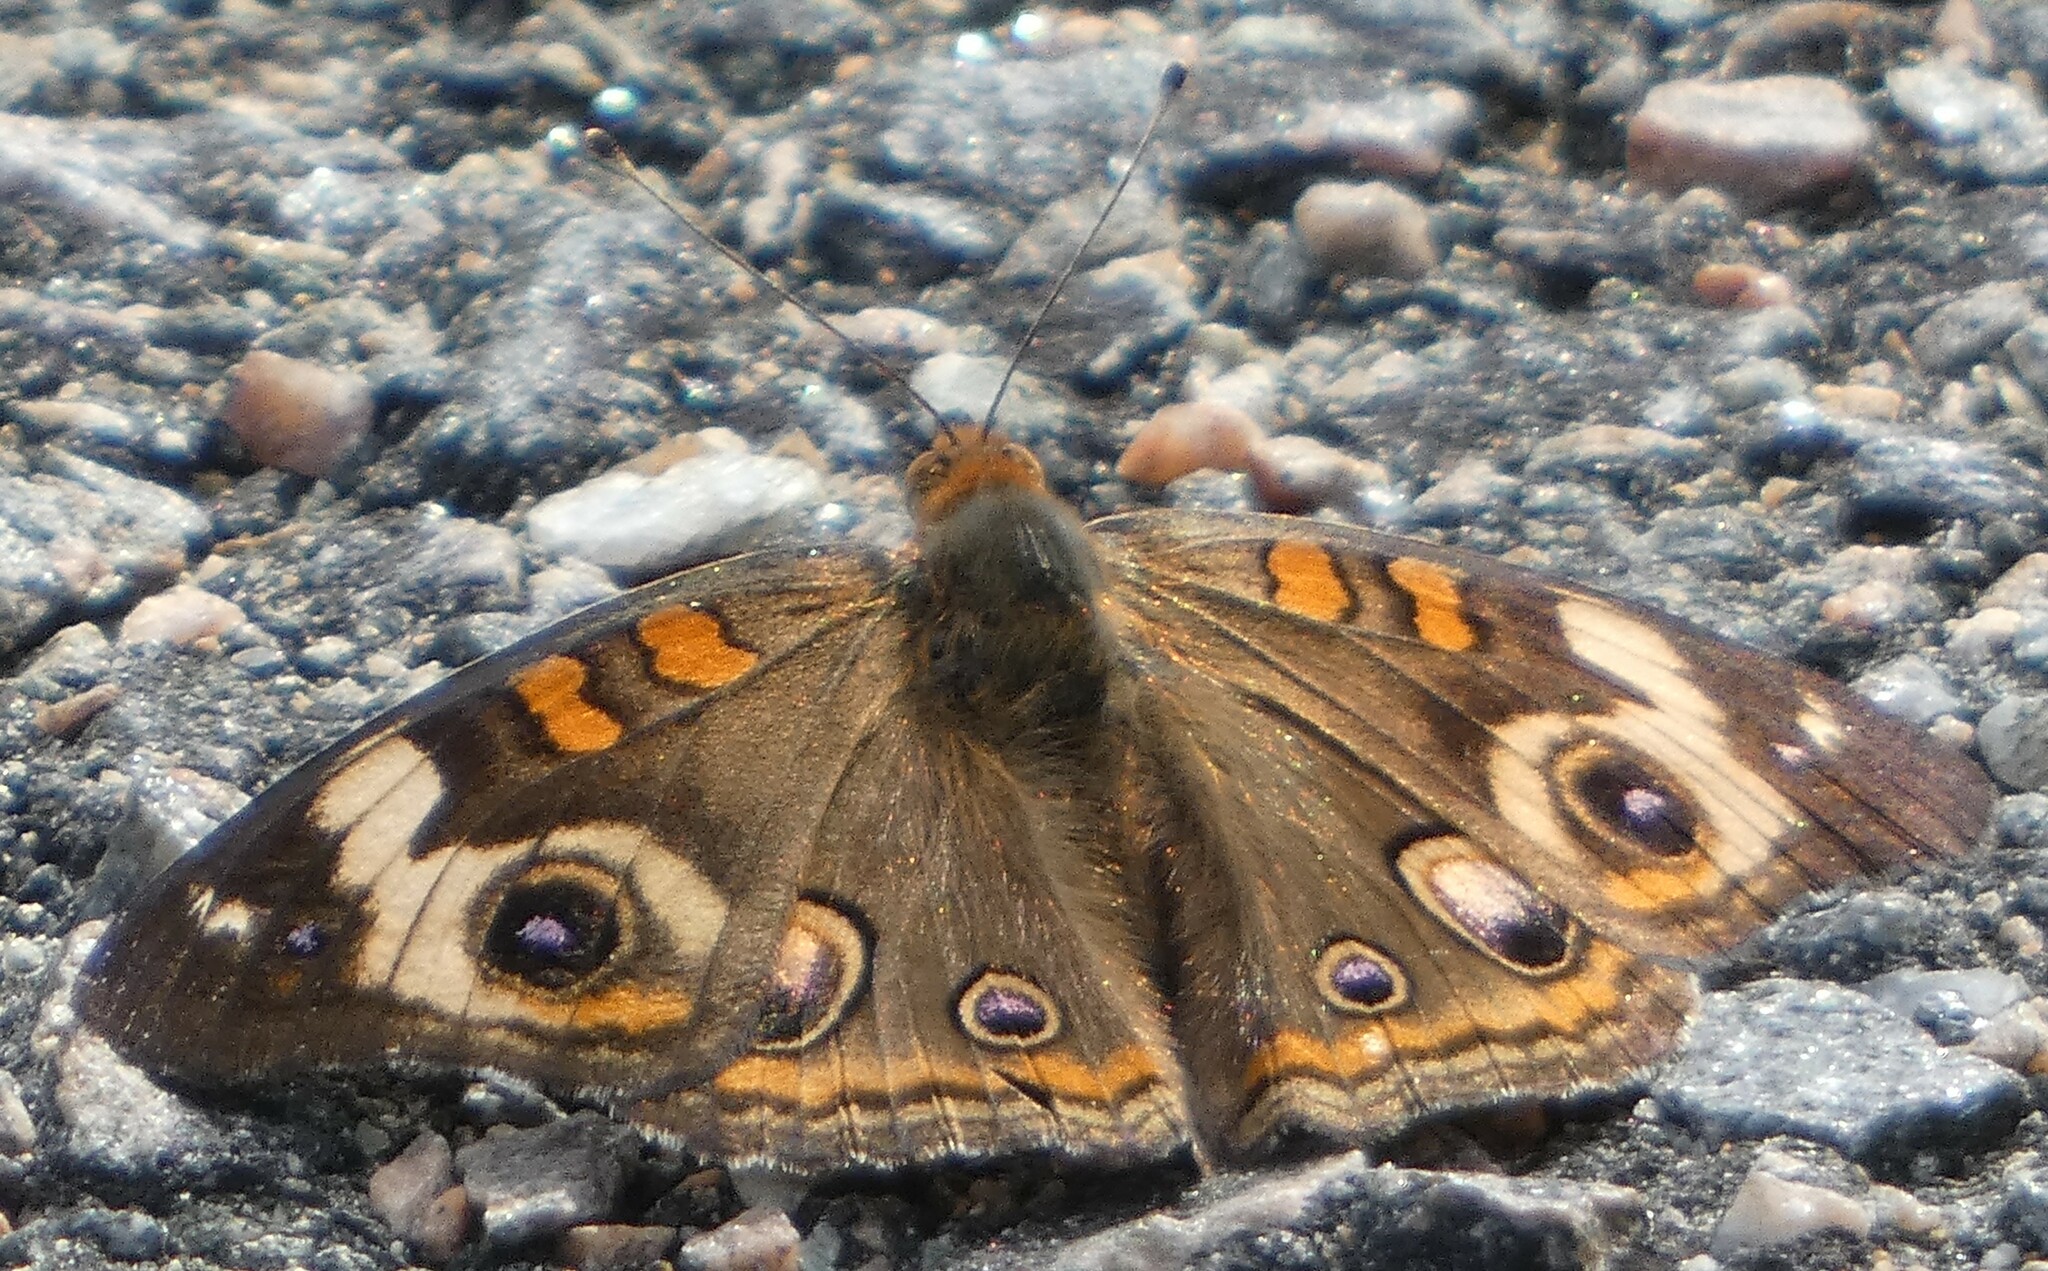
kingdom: Animalia
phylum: Arthropoda
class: Insecta
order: Lepidoptera
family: Nymphalidae
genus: Junonia
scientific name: Junonia coenia
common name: Common buckeye
